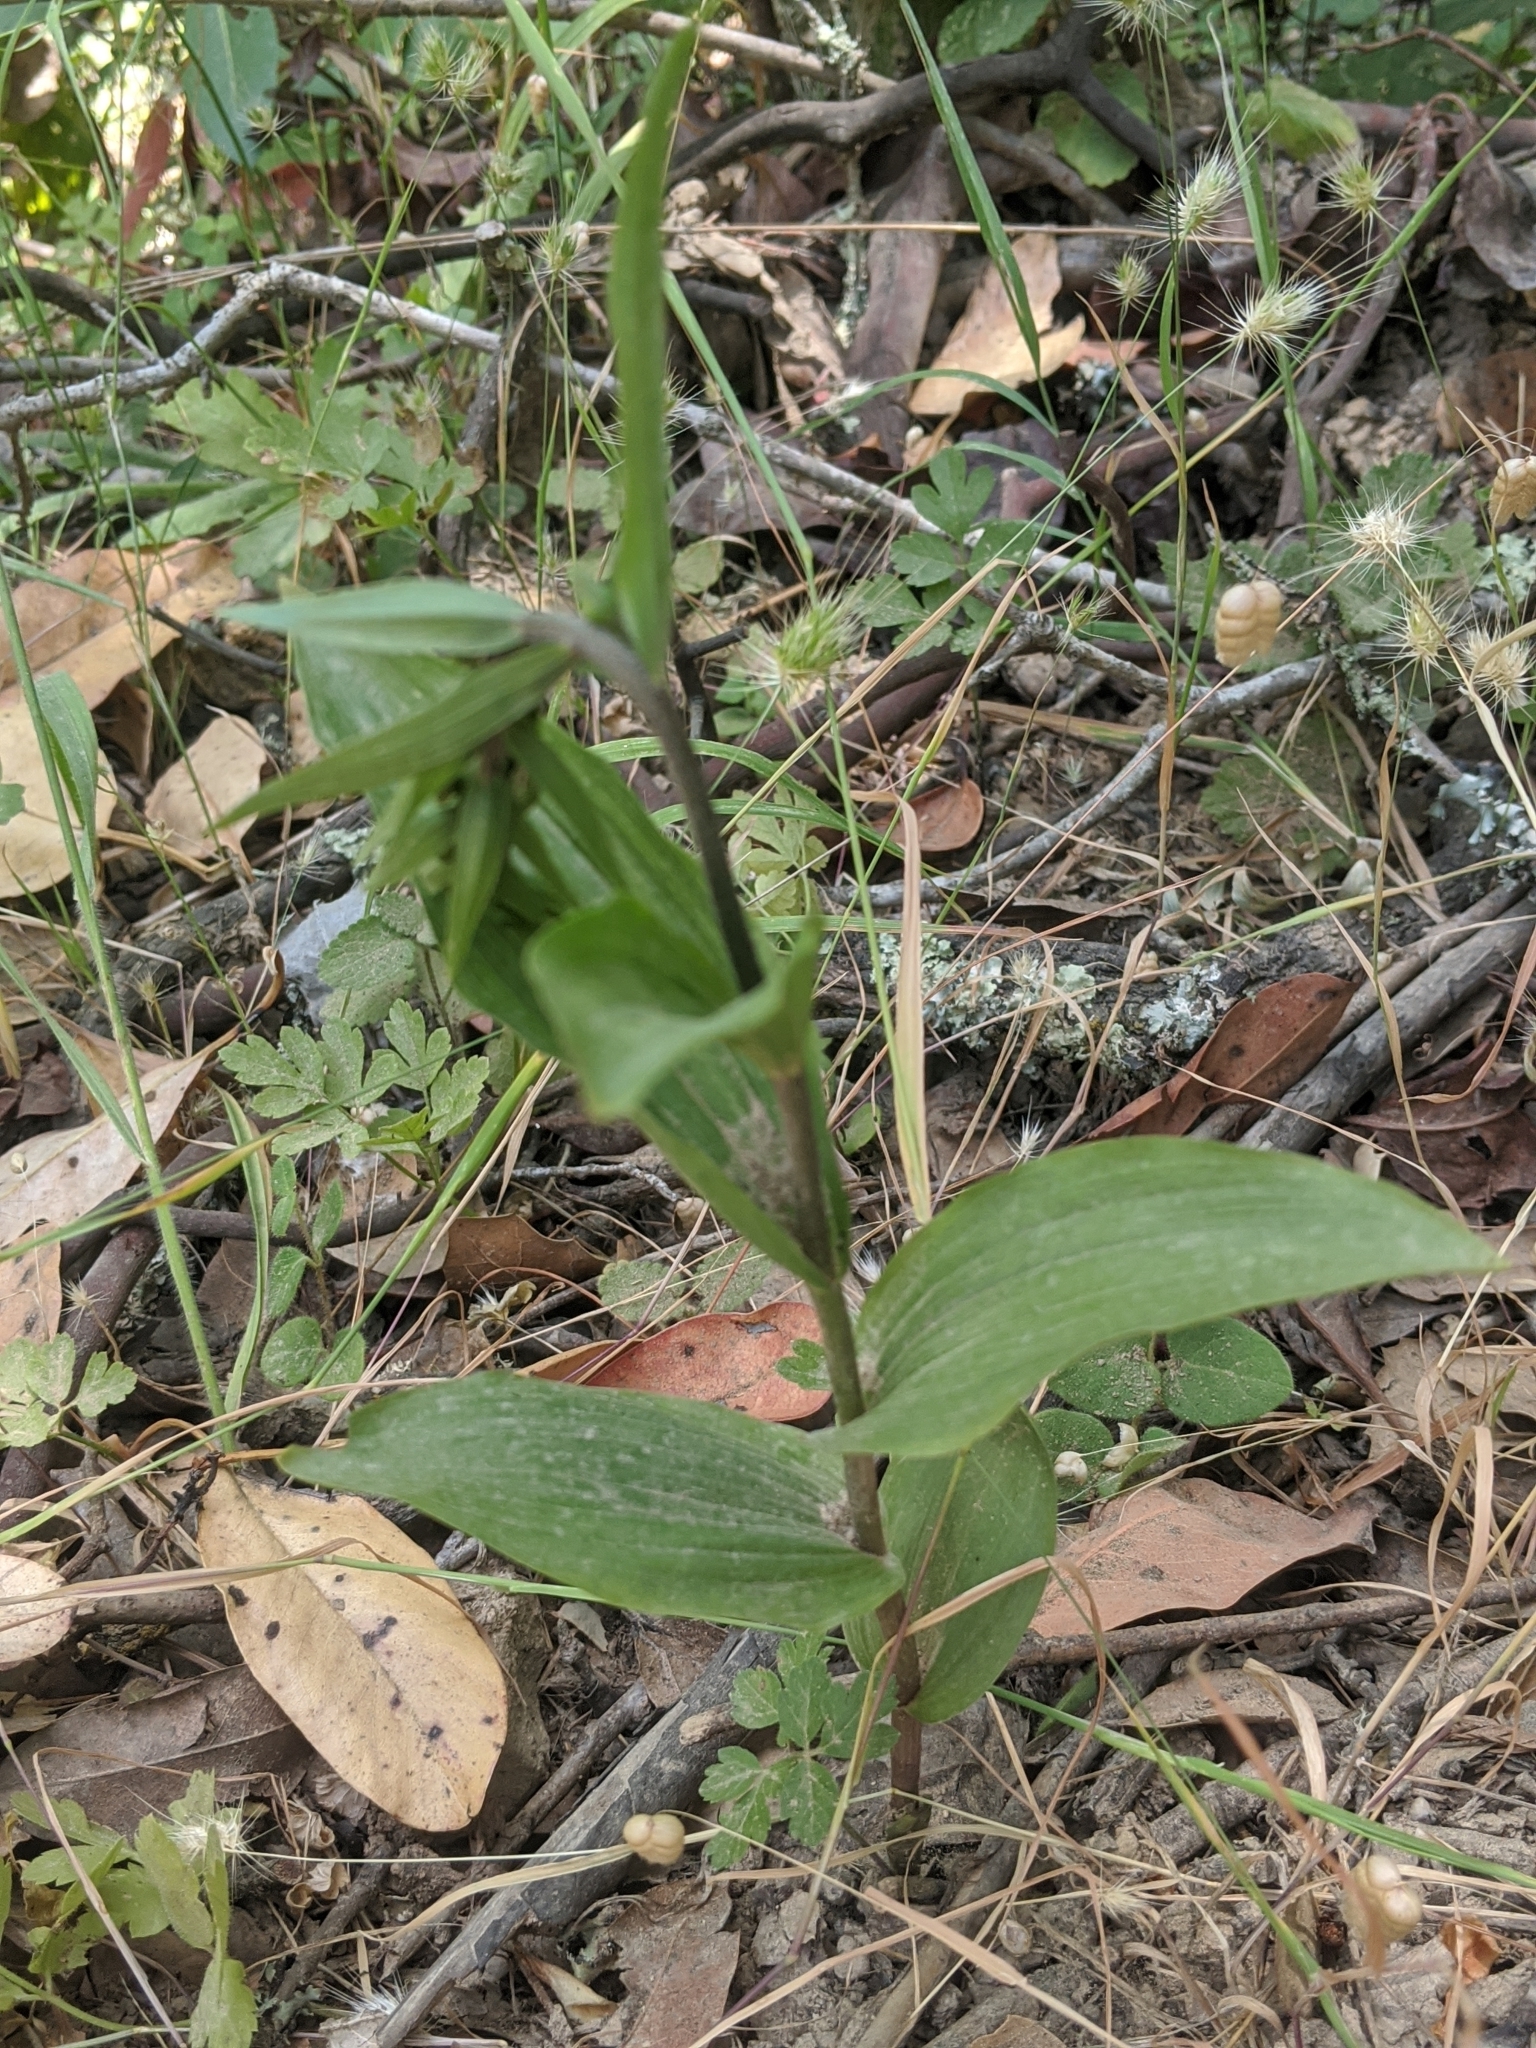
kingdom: Plantae
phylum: Tracheophyta
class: Liliopsida
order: Asparagales
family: Orchidaceae
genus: Epipactis
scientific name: Epipactis helleborine
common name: Broad-leaved helleborine
